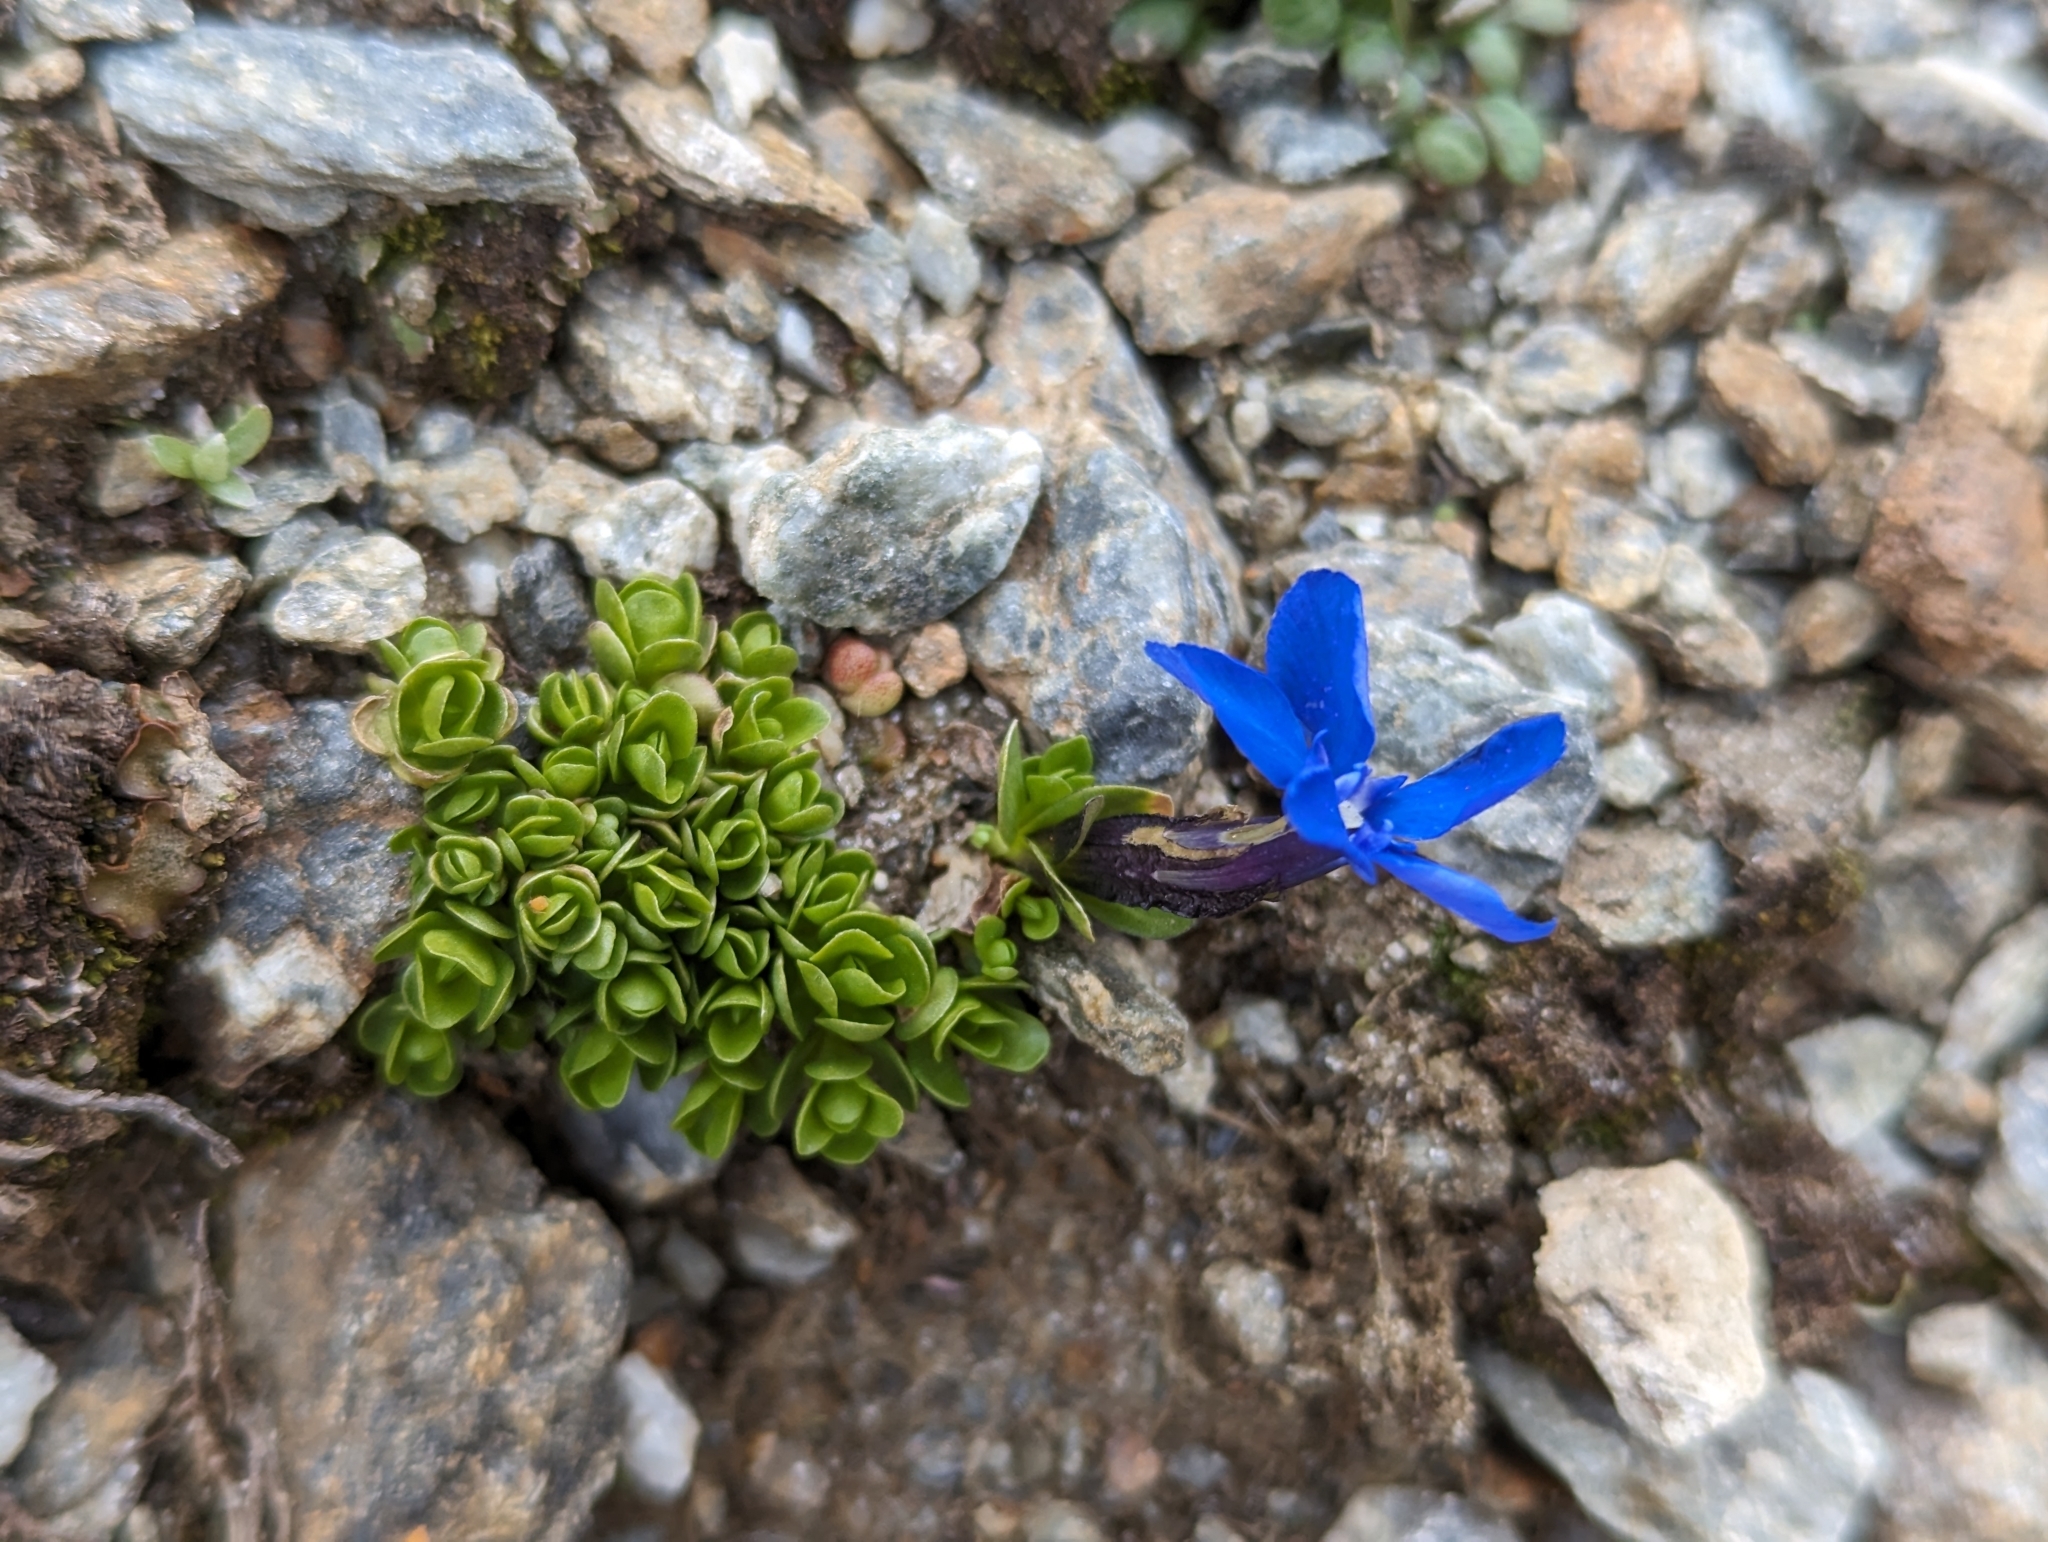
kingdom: Plantae
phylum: Tracheophyta
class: Magnoliopsida
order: Gentianales
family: Gentianaceae
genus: Gentiana
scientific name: Gentiana bavarica
